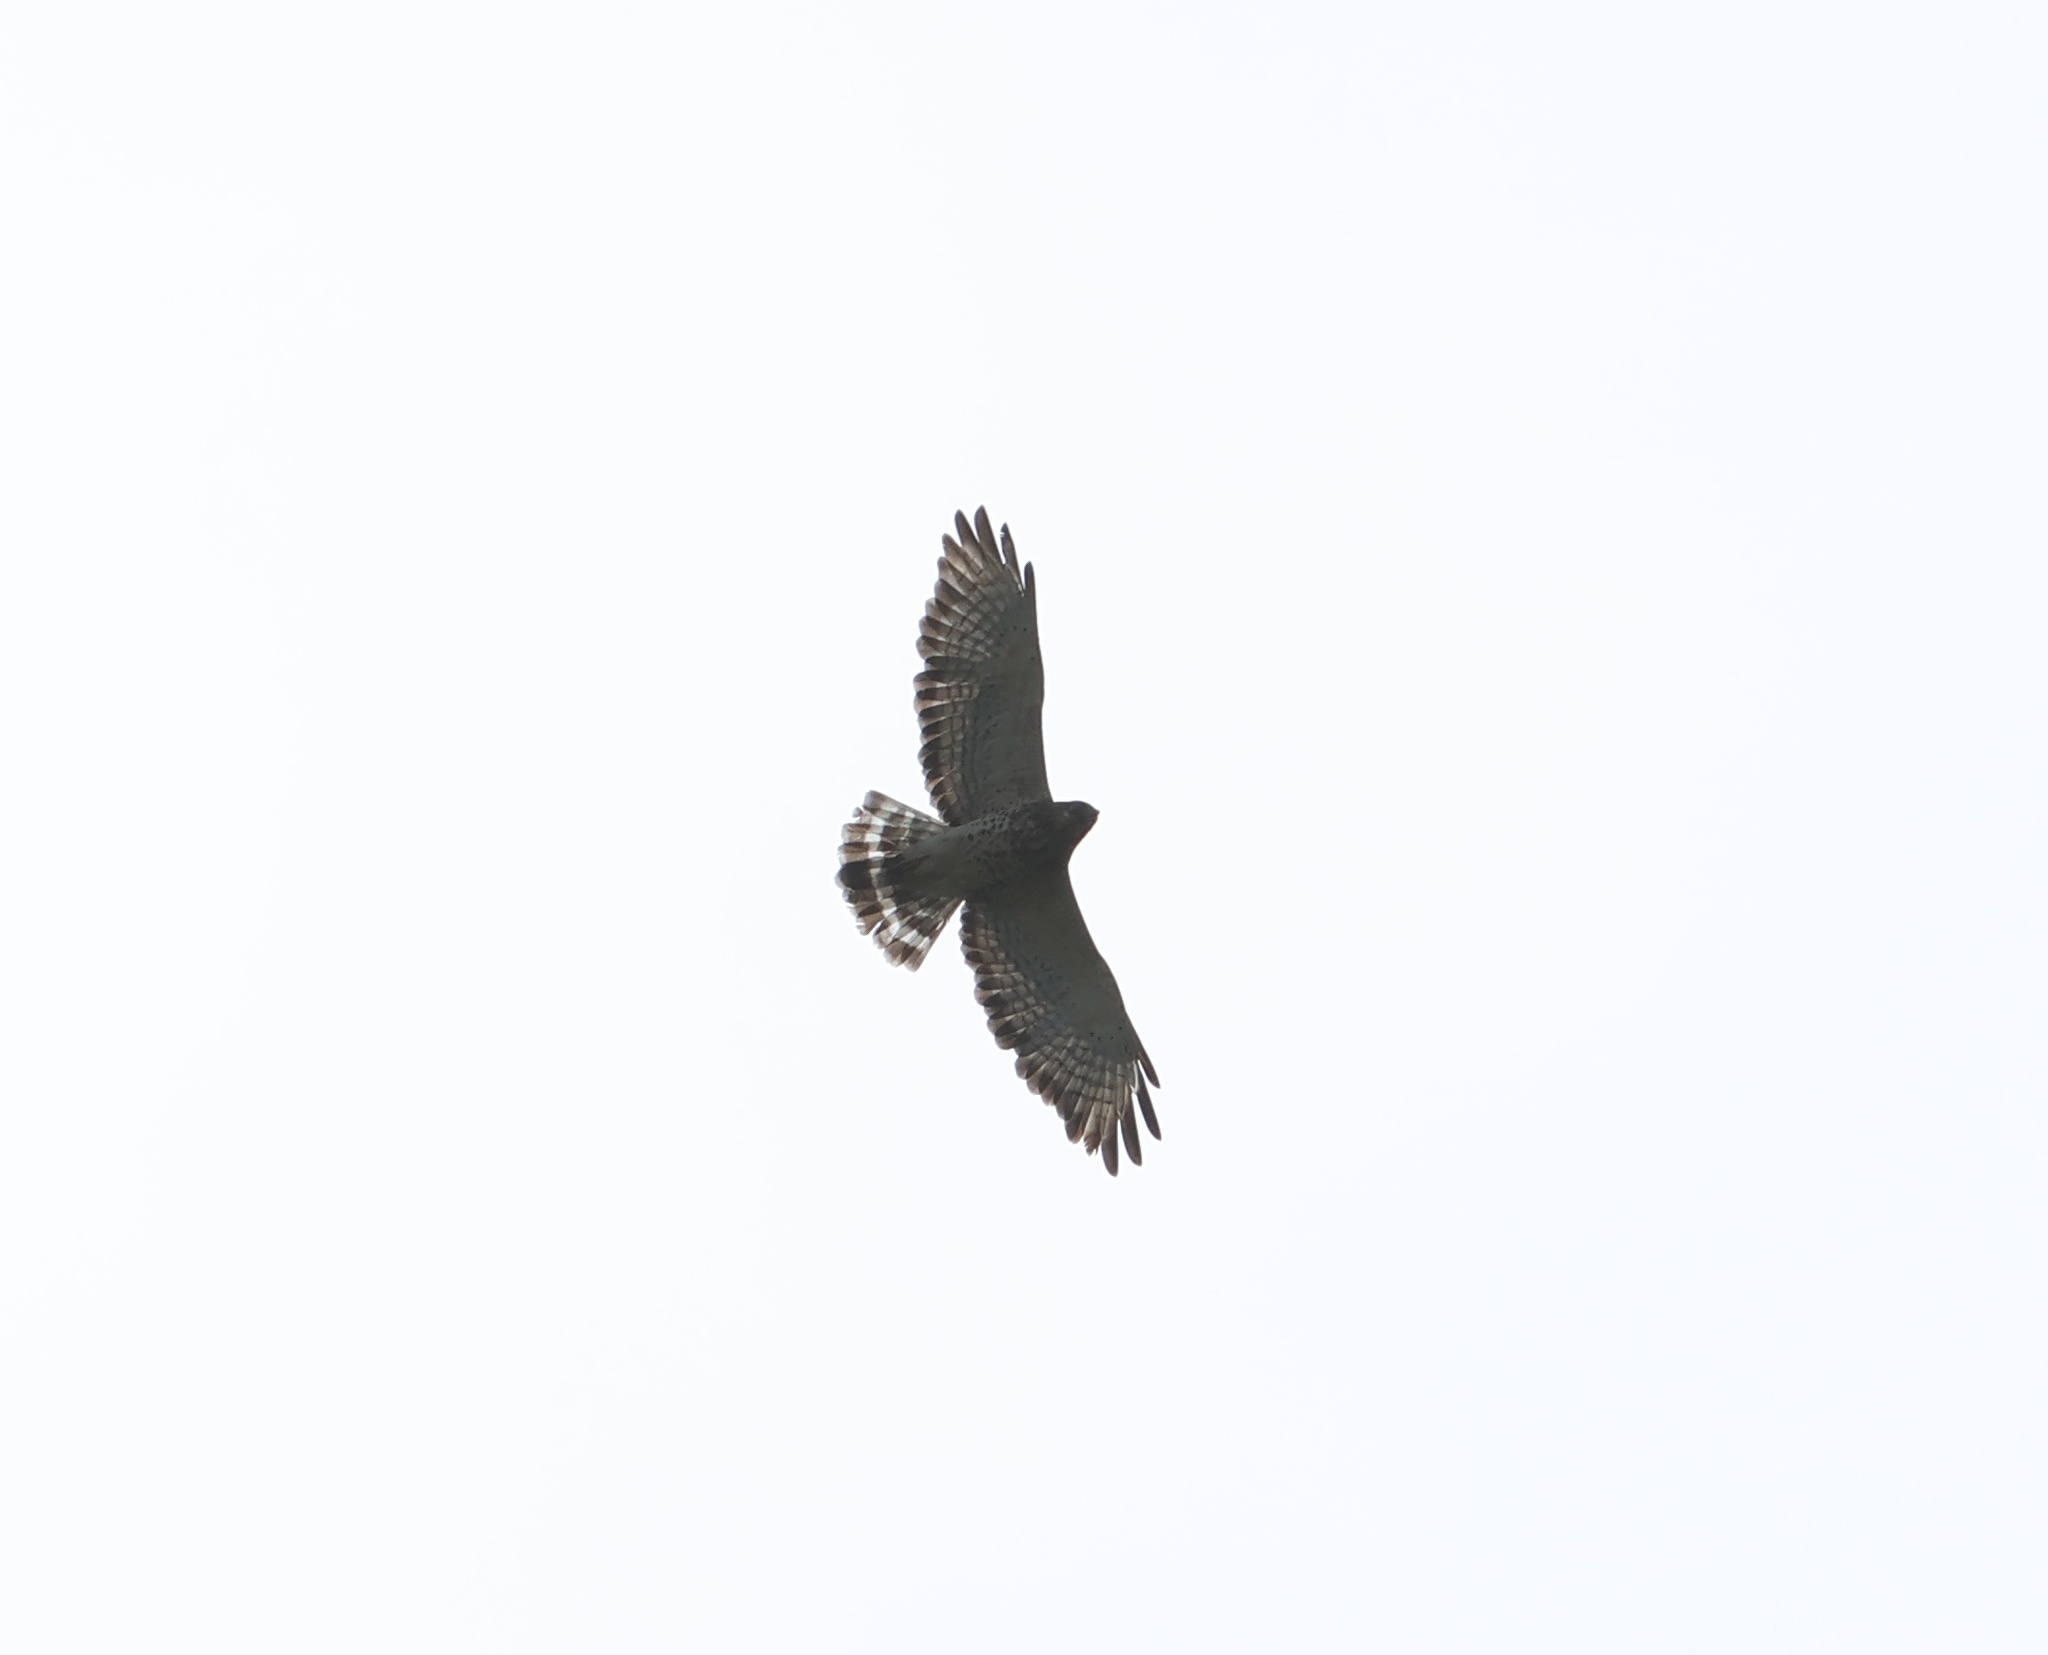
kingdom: Animalia
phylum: Chordata
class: Aves
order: Accipitriformes
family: Accipitridae
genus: Buteo
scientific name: Buteo platypterus
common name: Broad-winged hawk
